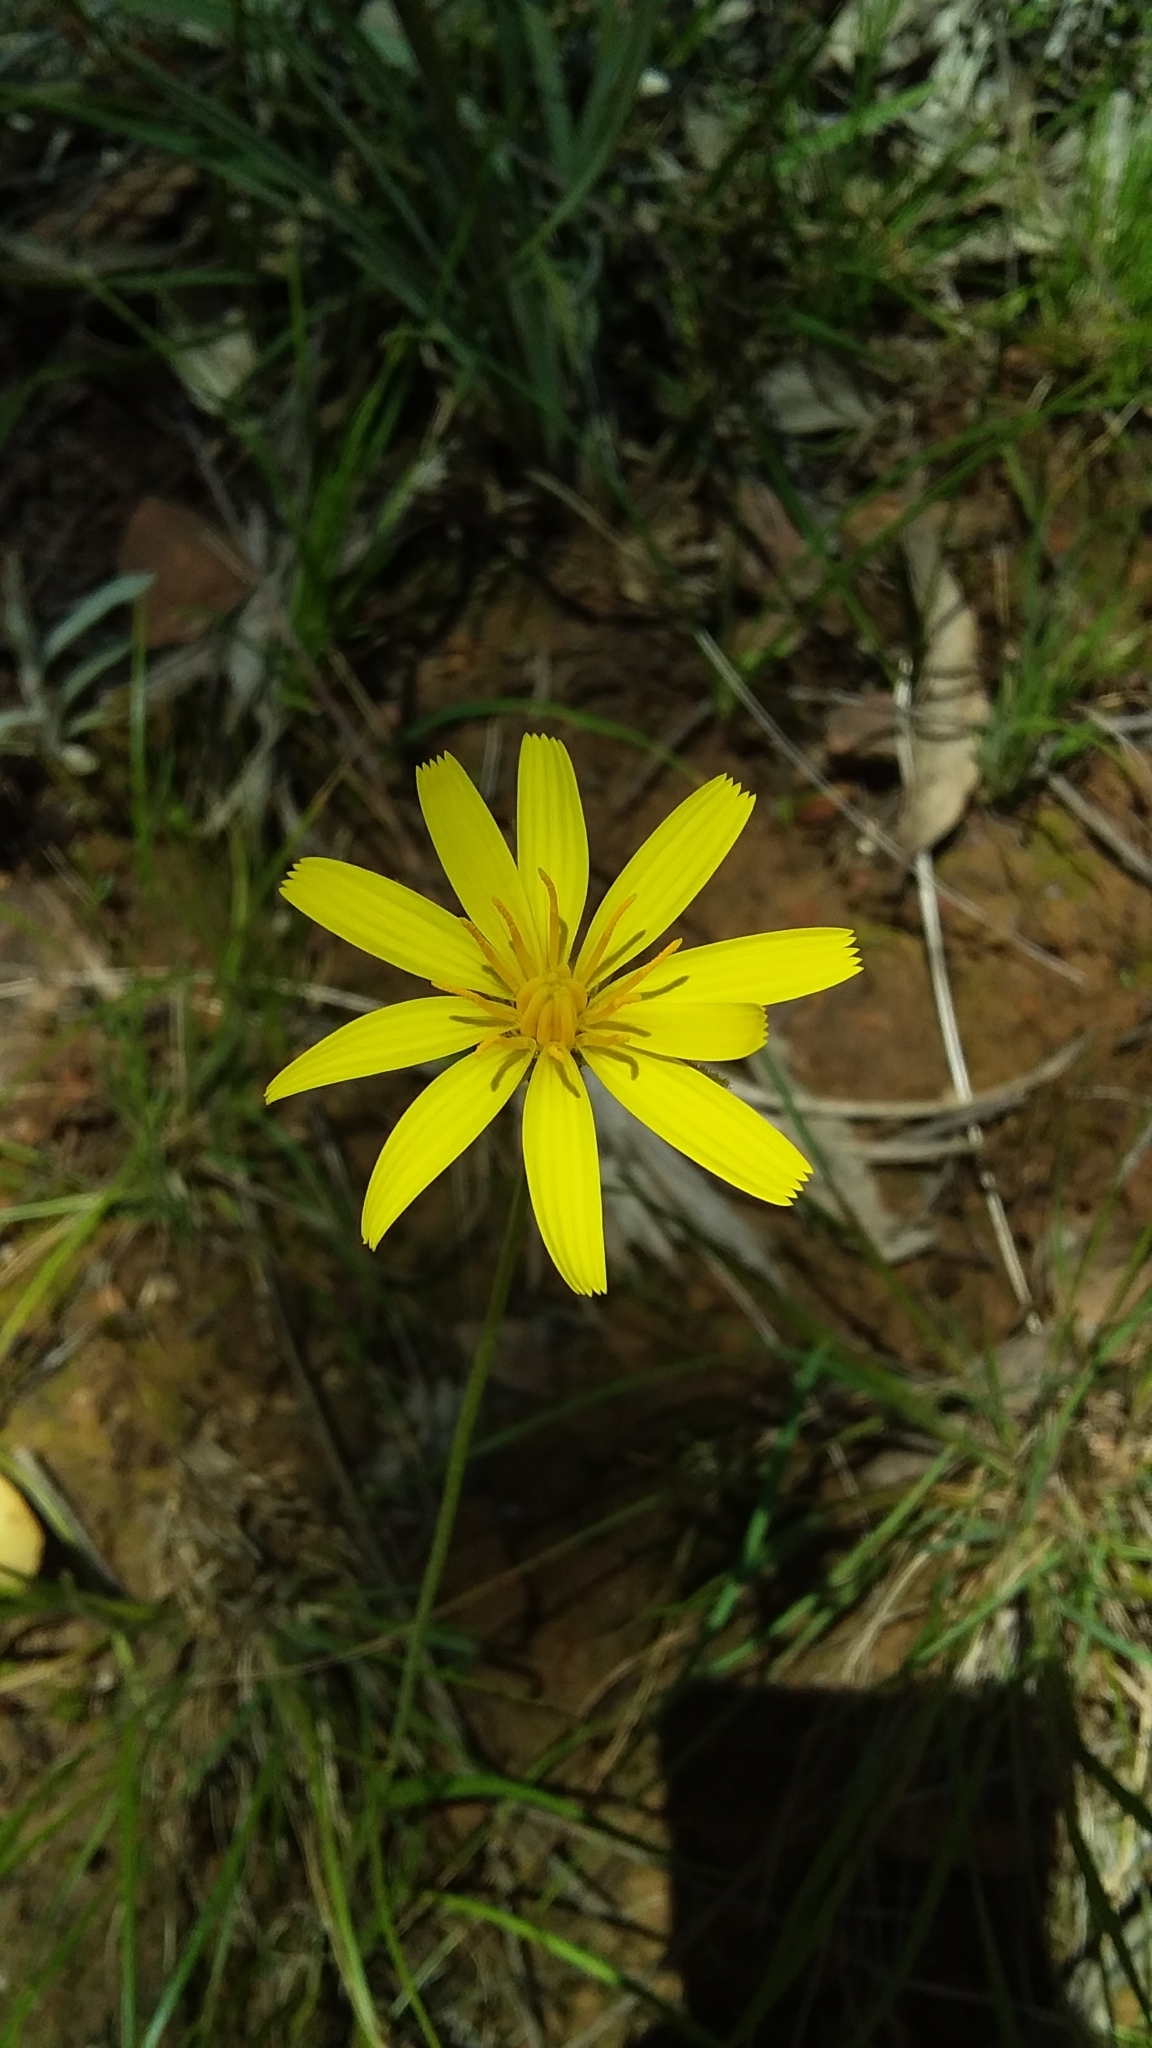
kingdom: Plantae
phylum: Tracheophyta
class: Magnoliopsida
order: Asterales
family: Asteraceae
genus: Microseris
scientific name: Microseris lanceolata
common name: Yam daisy
